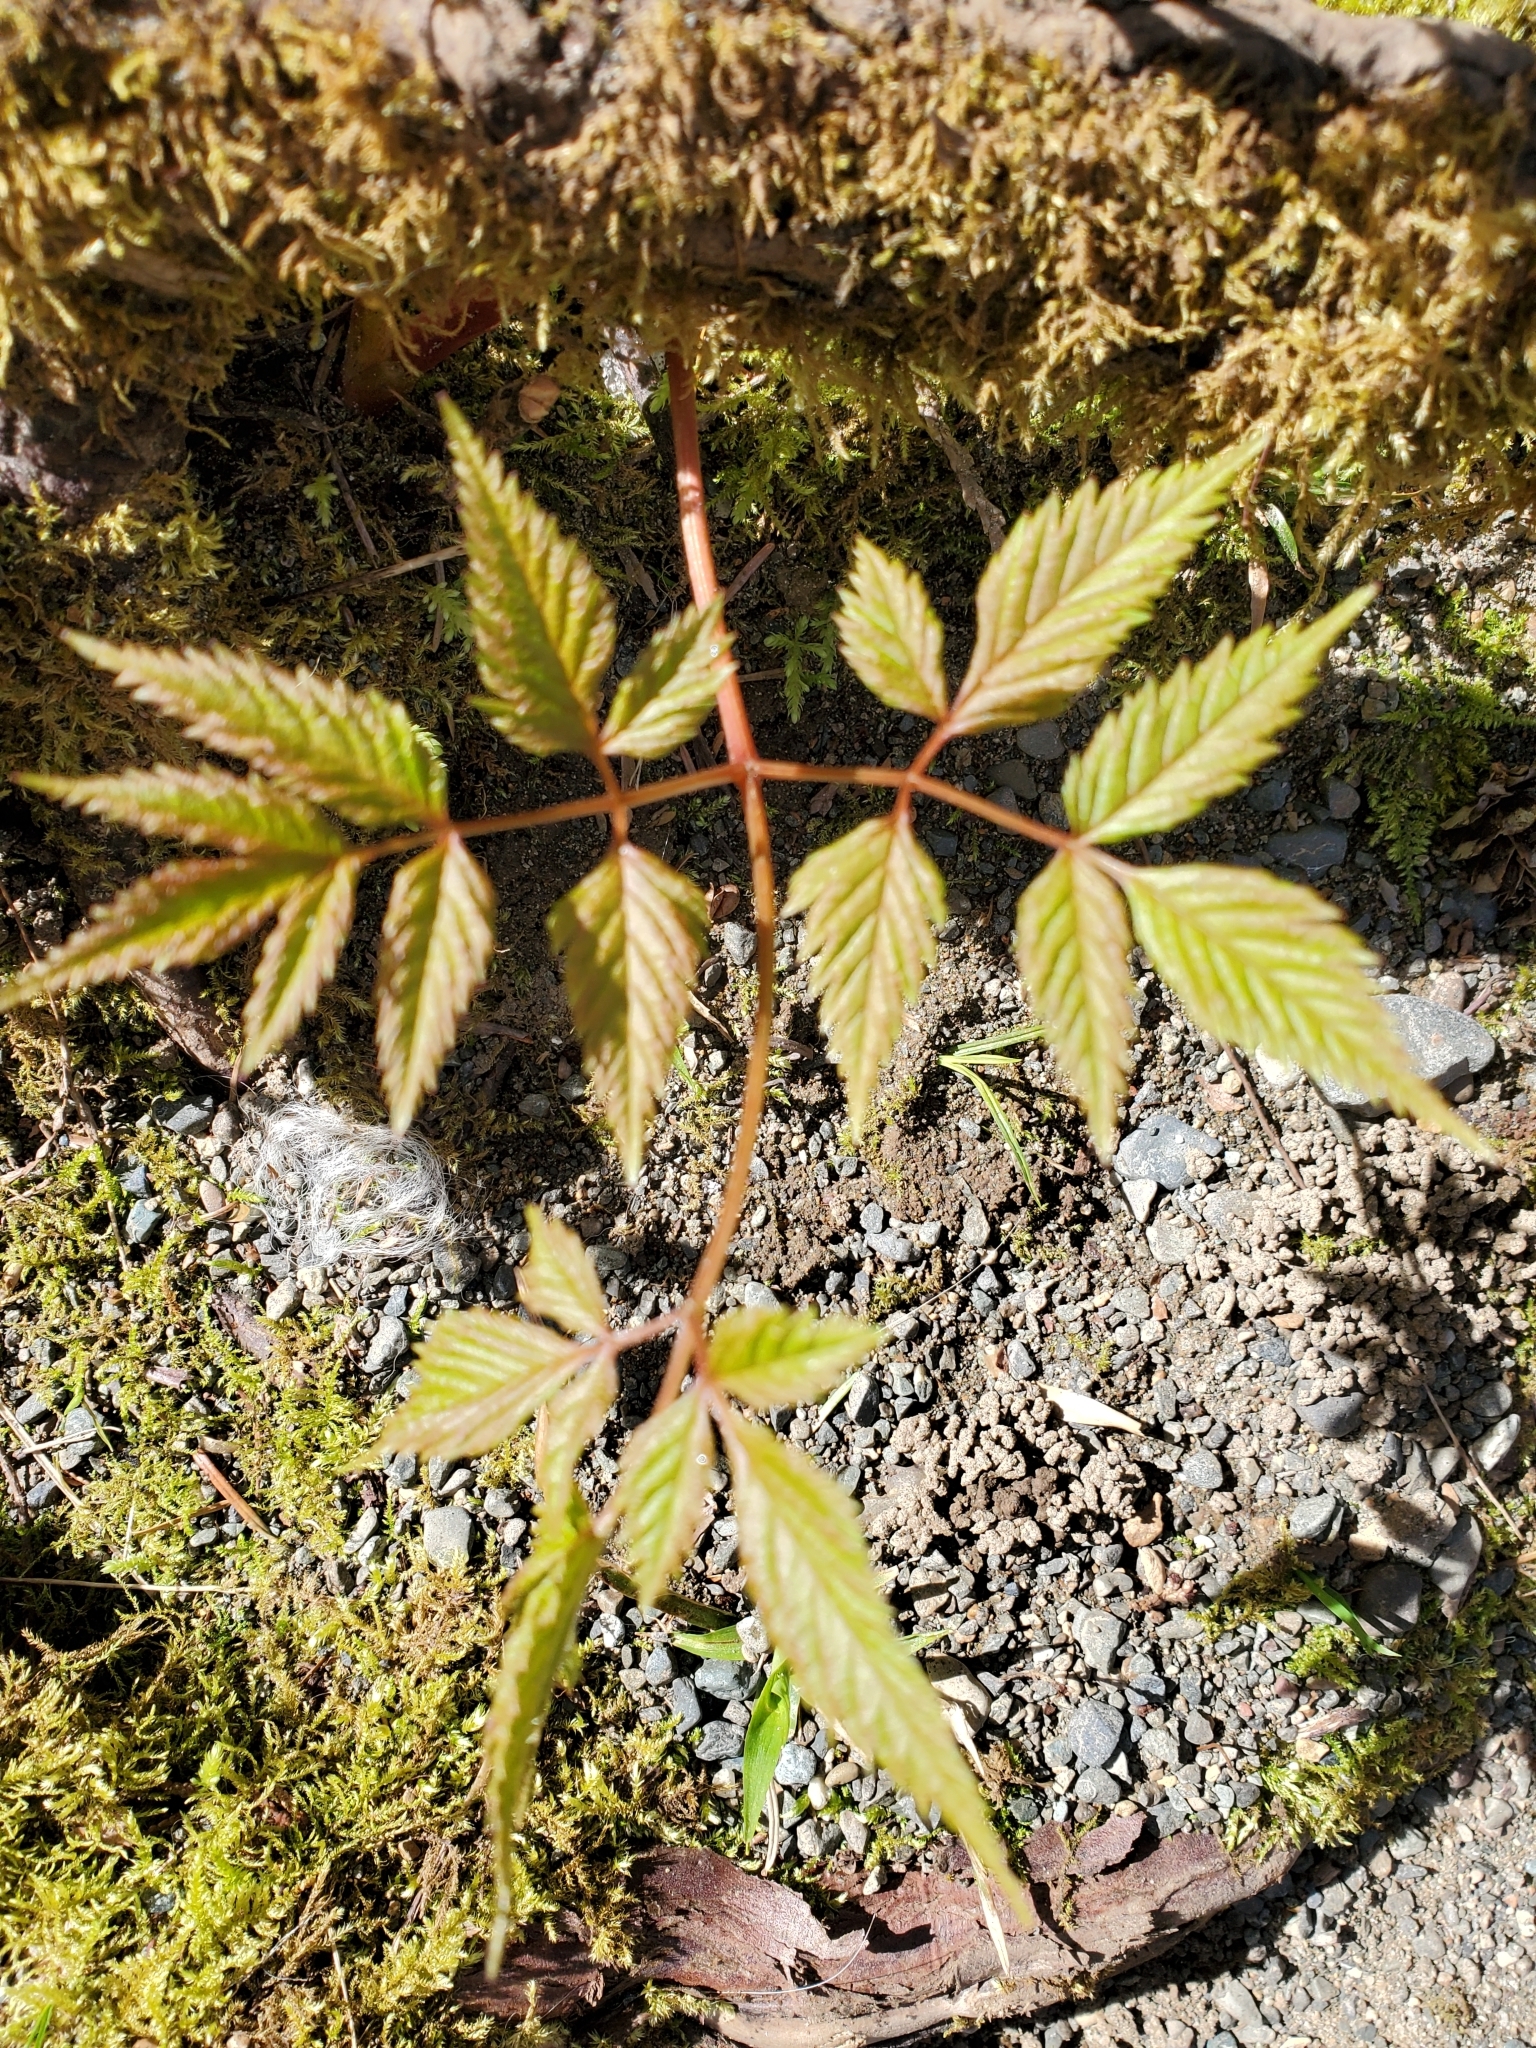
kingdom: Plantae
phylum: Tracheophyta
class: Magnoliopsida
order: Rosales
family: Rosaceae
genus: Aruncus
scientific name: Aruncus dioicus
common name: Buck's-beard
